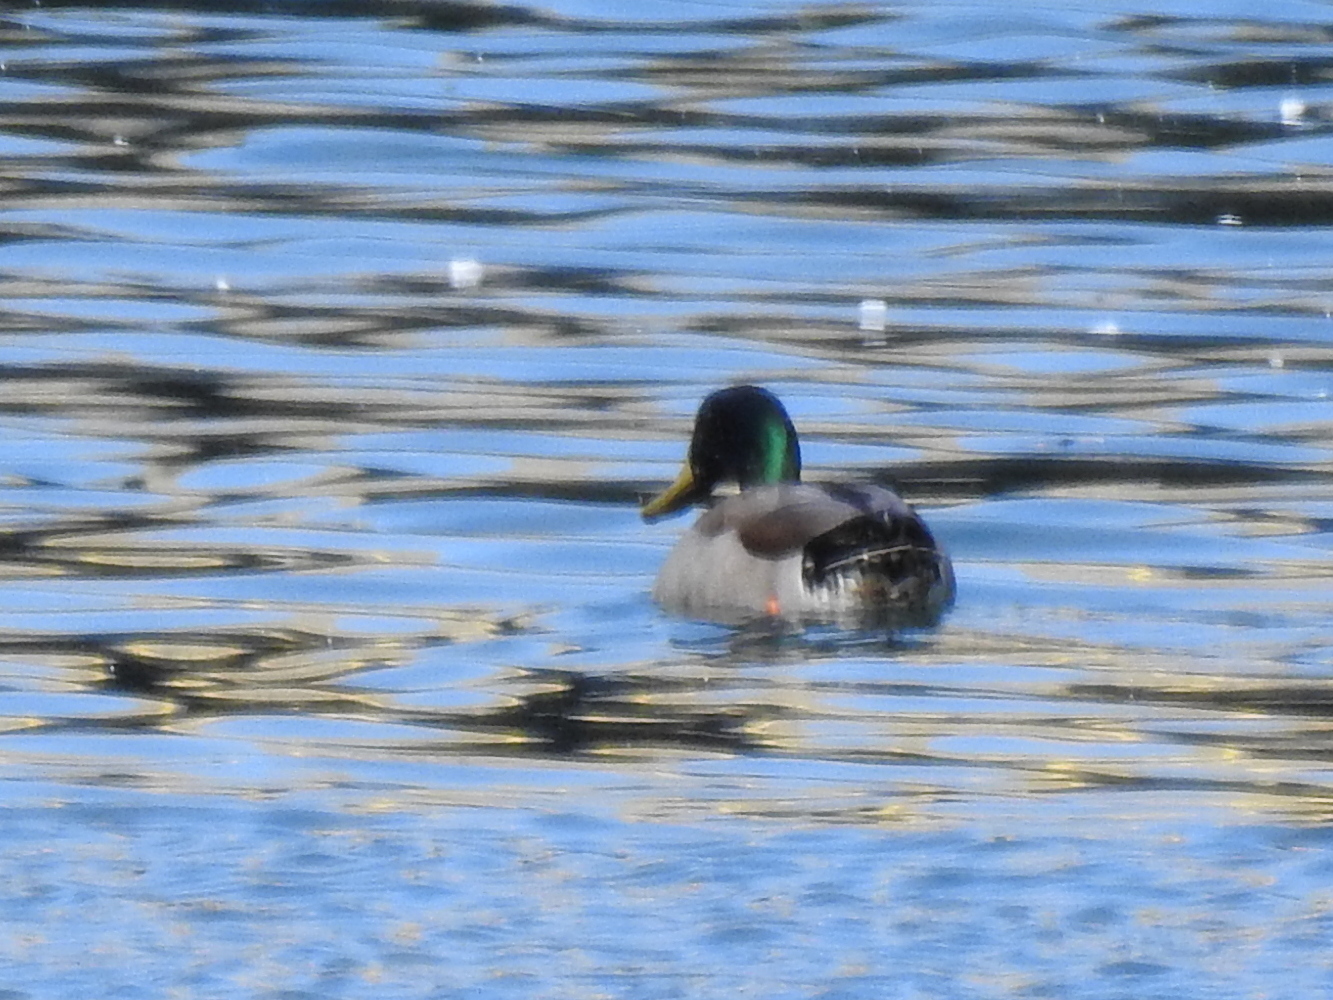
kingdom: Animalia
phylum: Chordata
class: Aves
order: Anseriformes
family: Anatidae
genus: Anas
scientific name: Anas platyrhynchos
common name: Mallard
